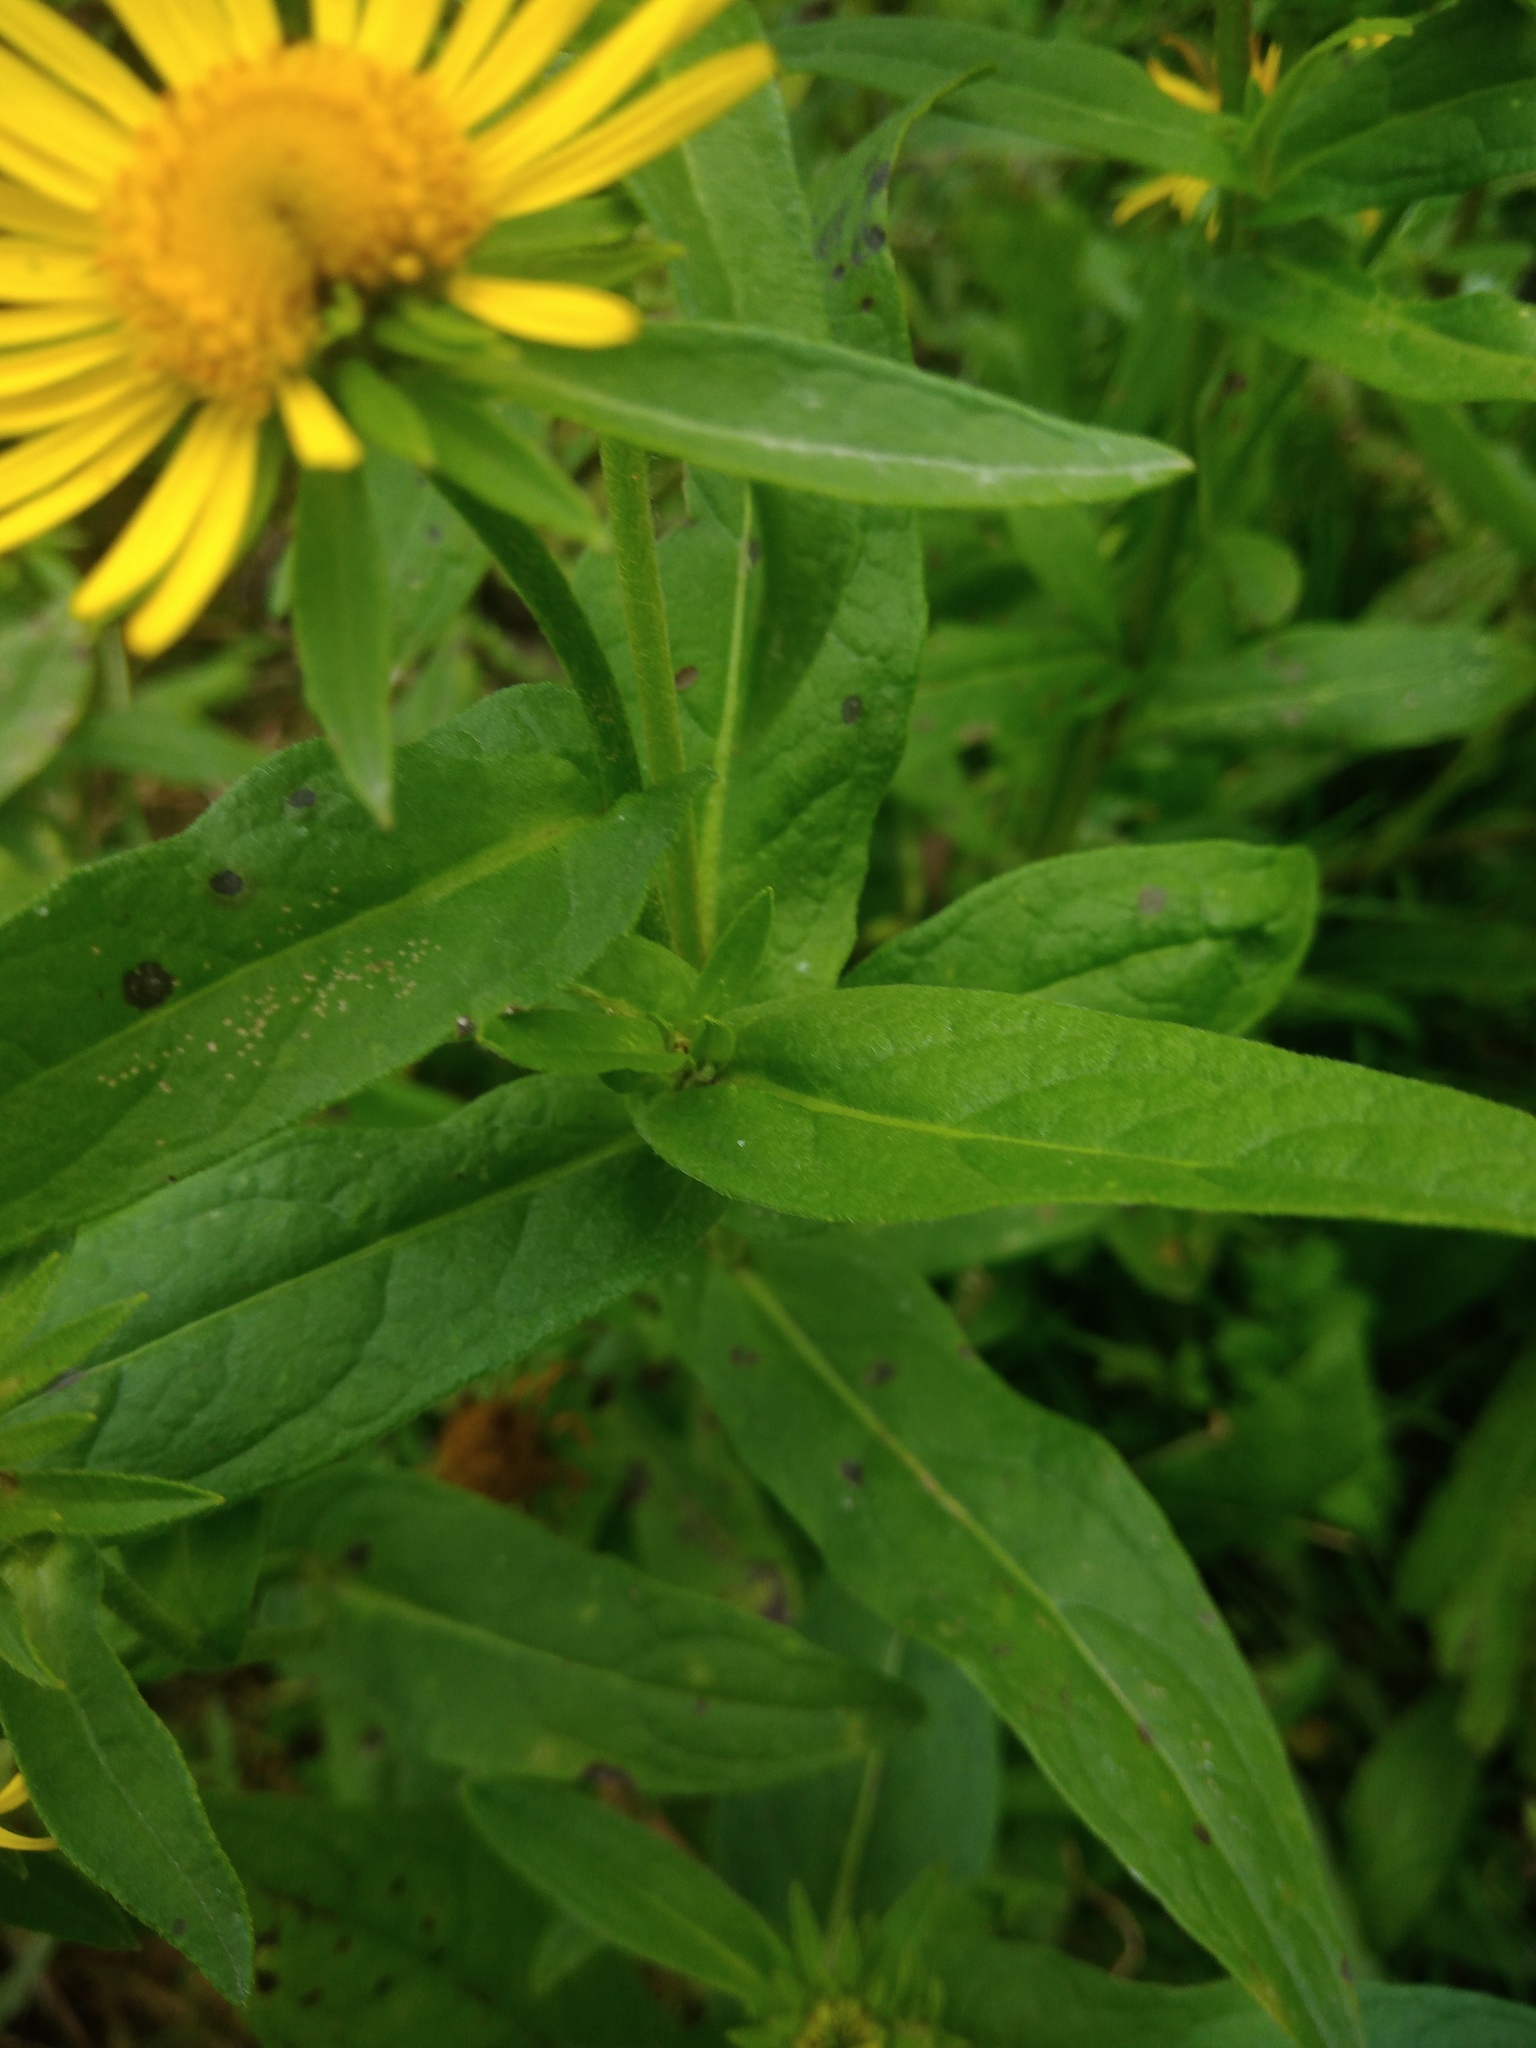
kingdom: Plantae
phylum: Tracheophyta
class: Magnoliopsida
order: Asterales
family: Asteraceae
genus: Pentanema
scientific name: Pentanema britannicum
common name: British elecampane
